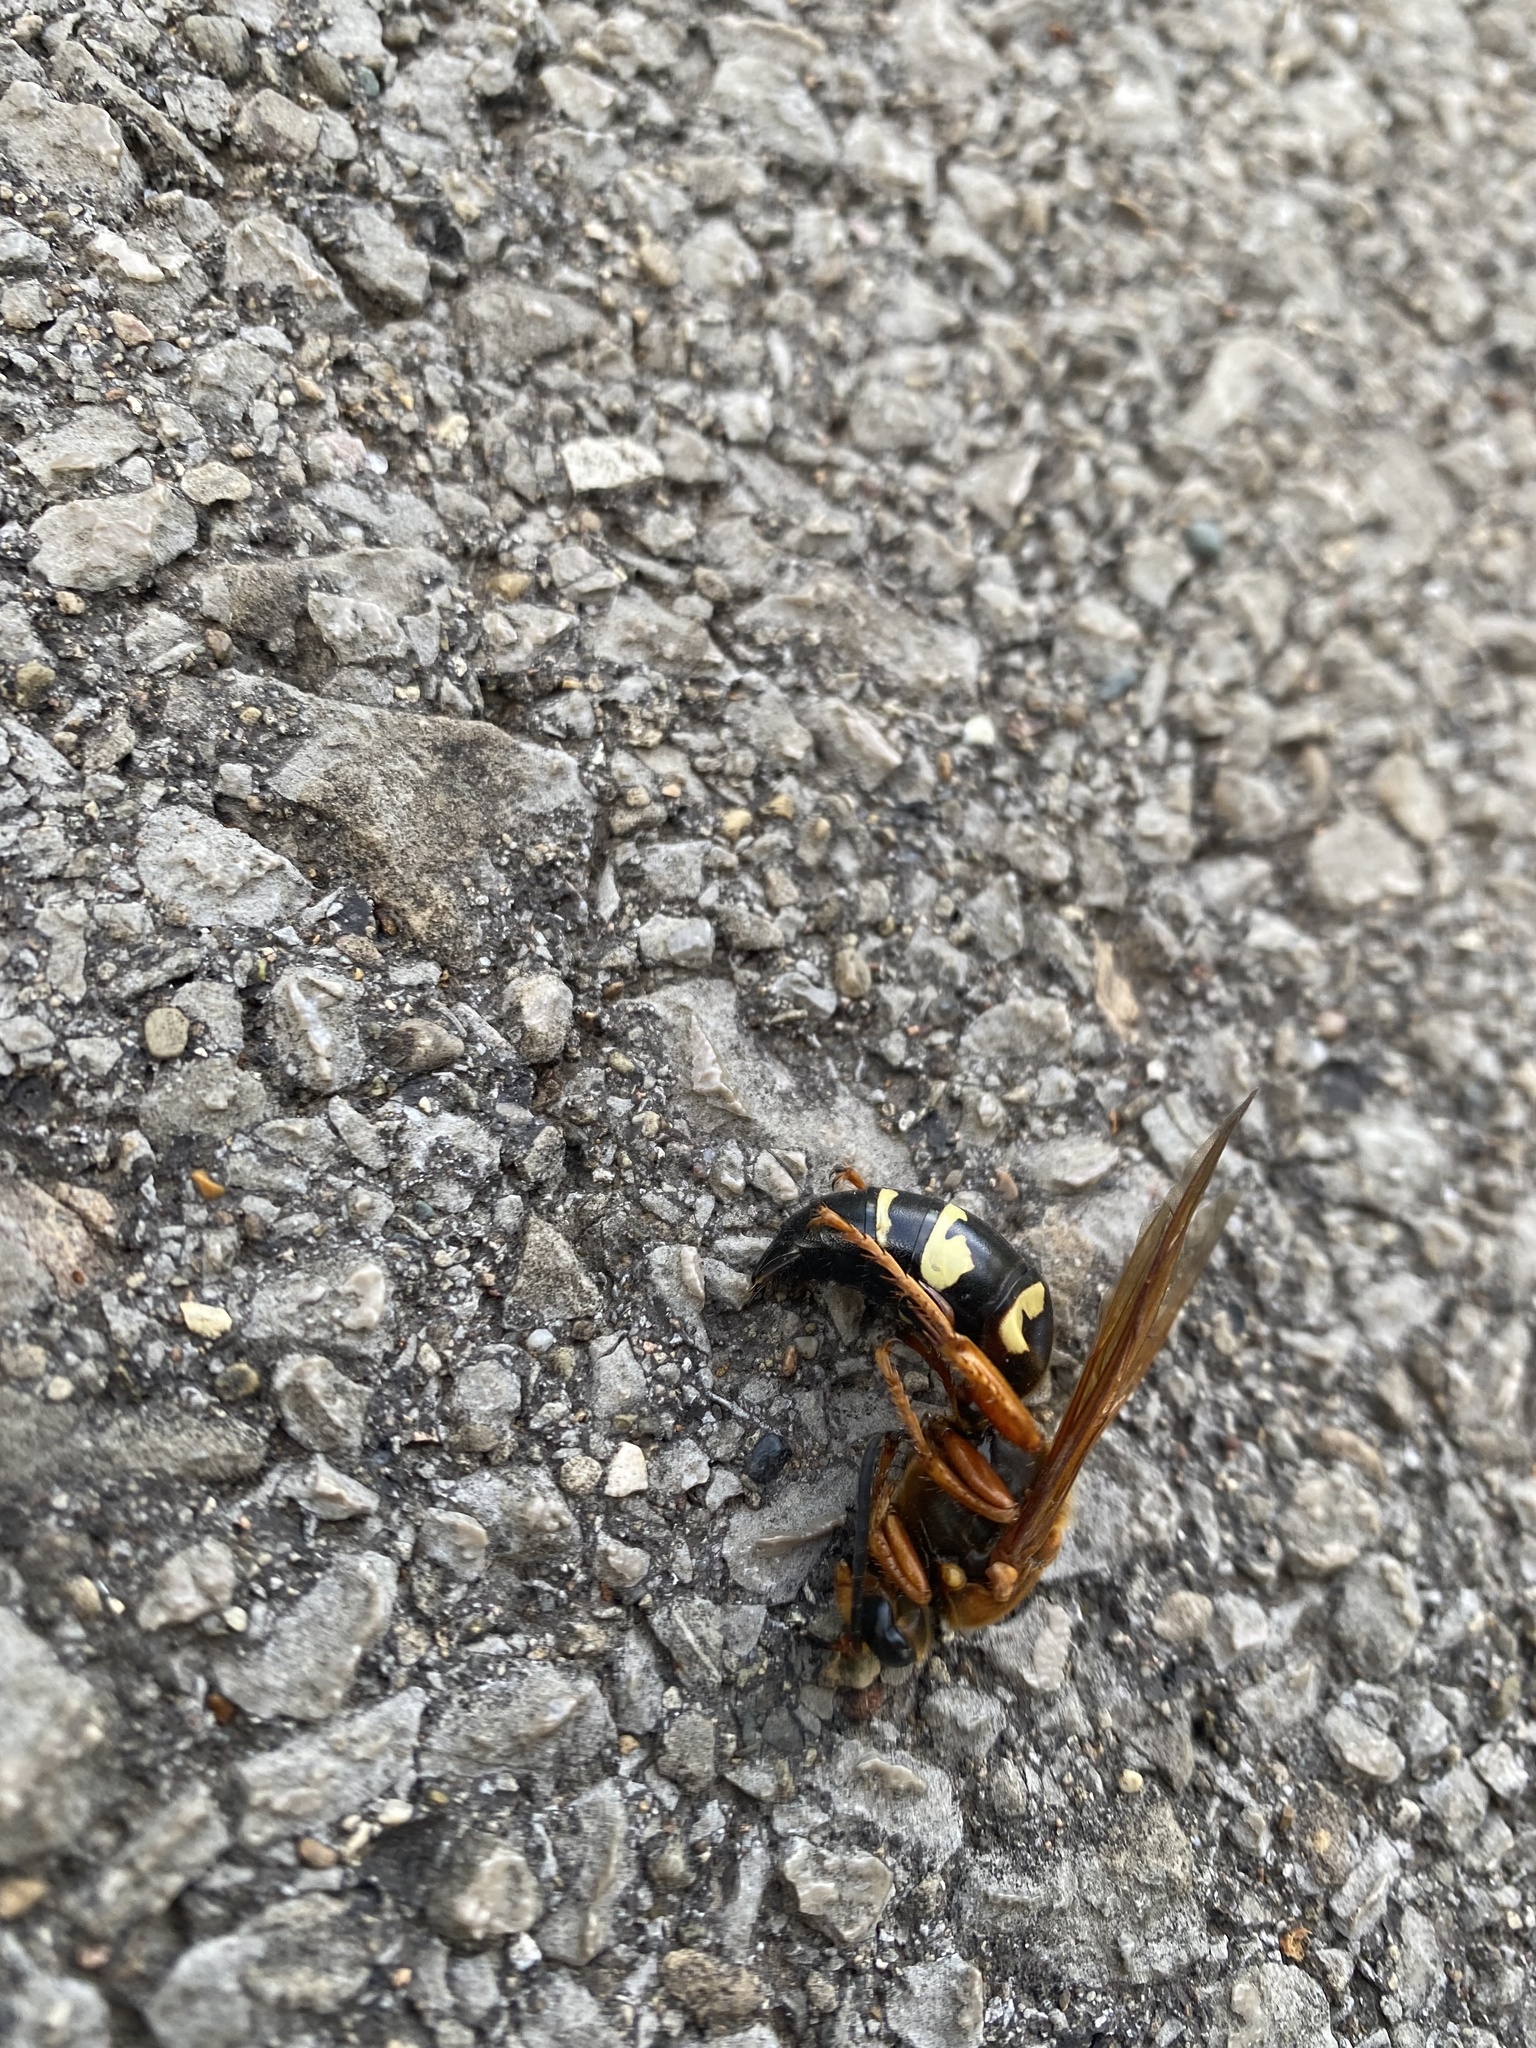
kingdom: Animalia
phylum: Arthropoda
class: Insecta
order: Hymenoptera
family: Crabronidae
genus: Sphecius
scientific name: Sphecius speciosus
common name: Cicada killer
